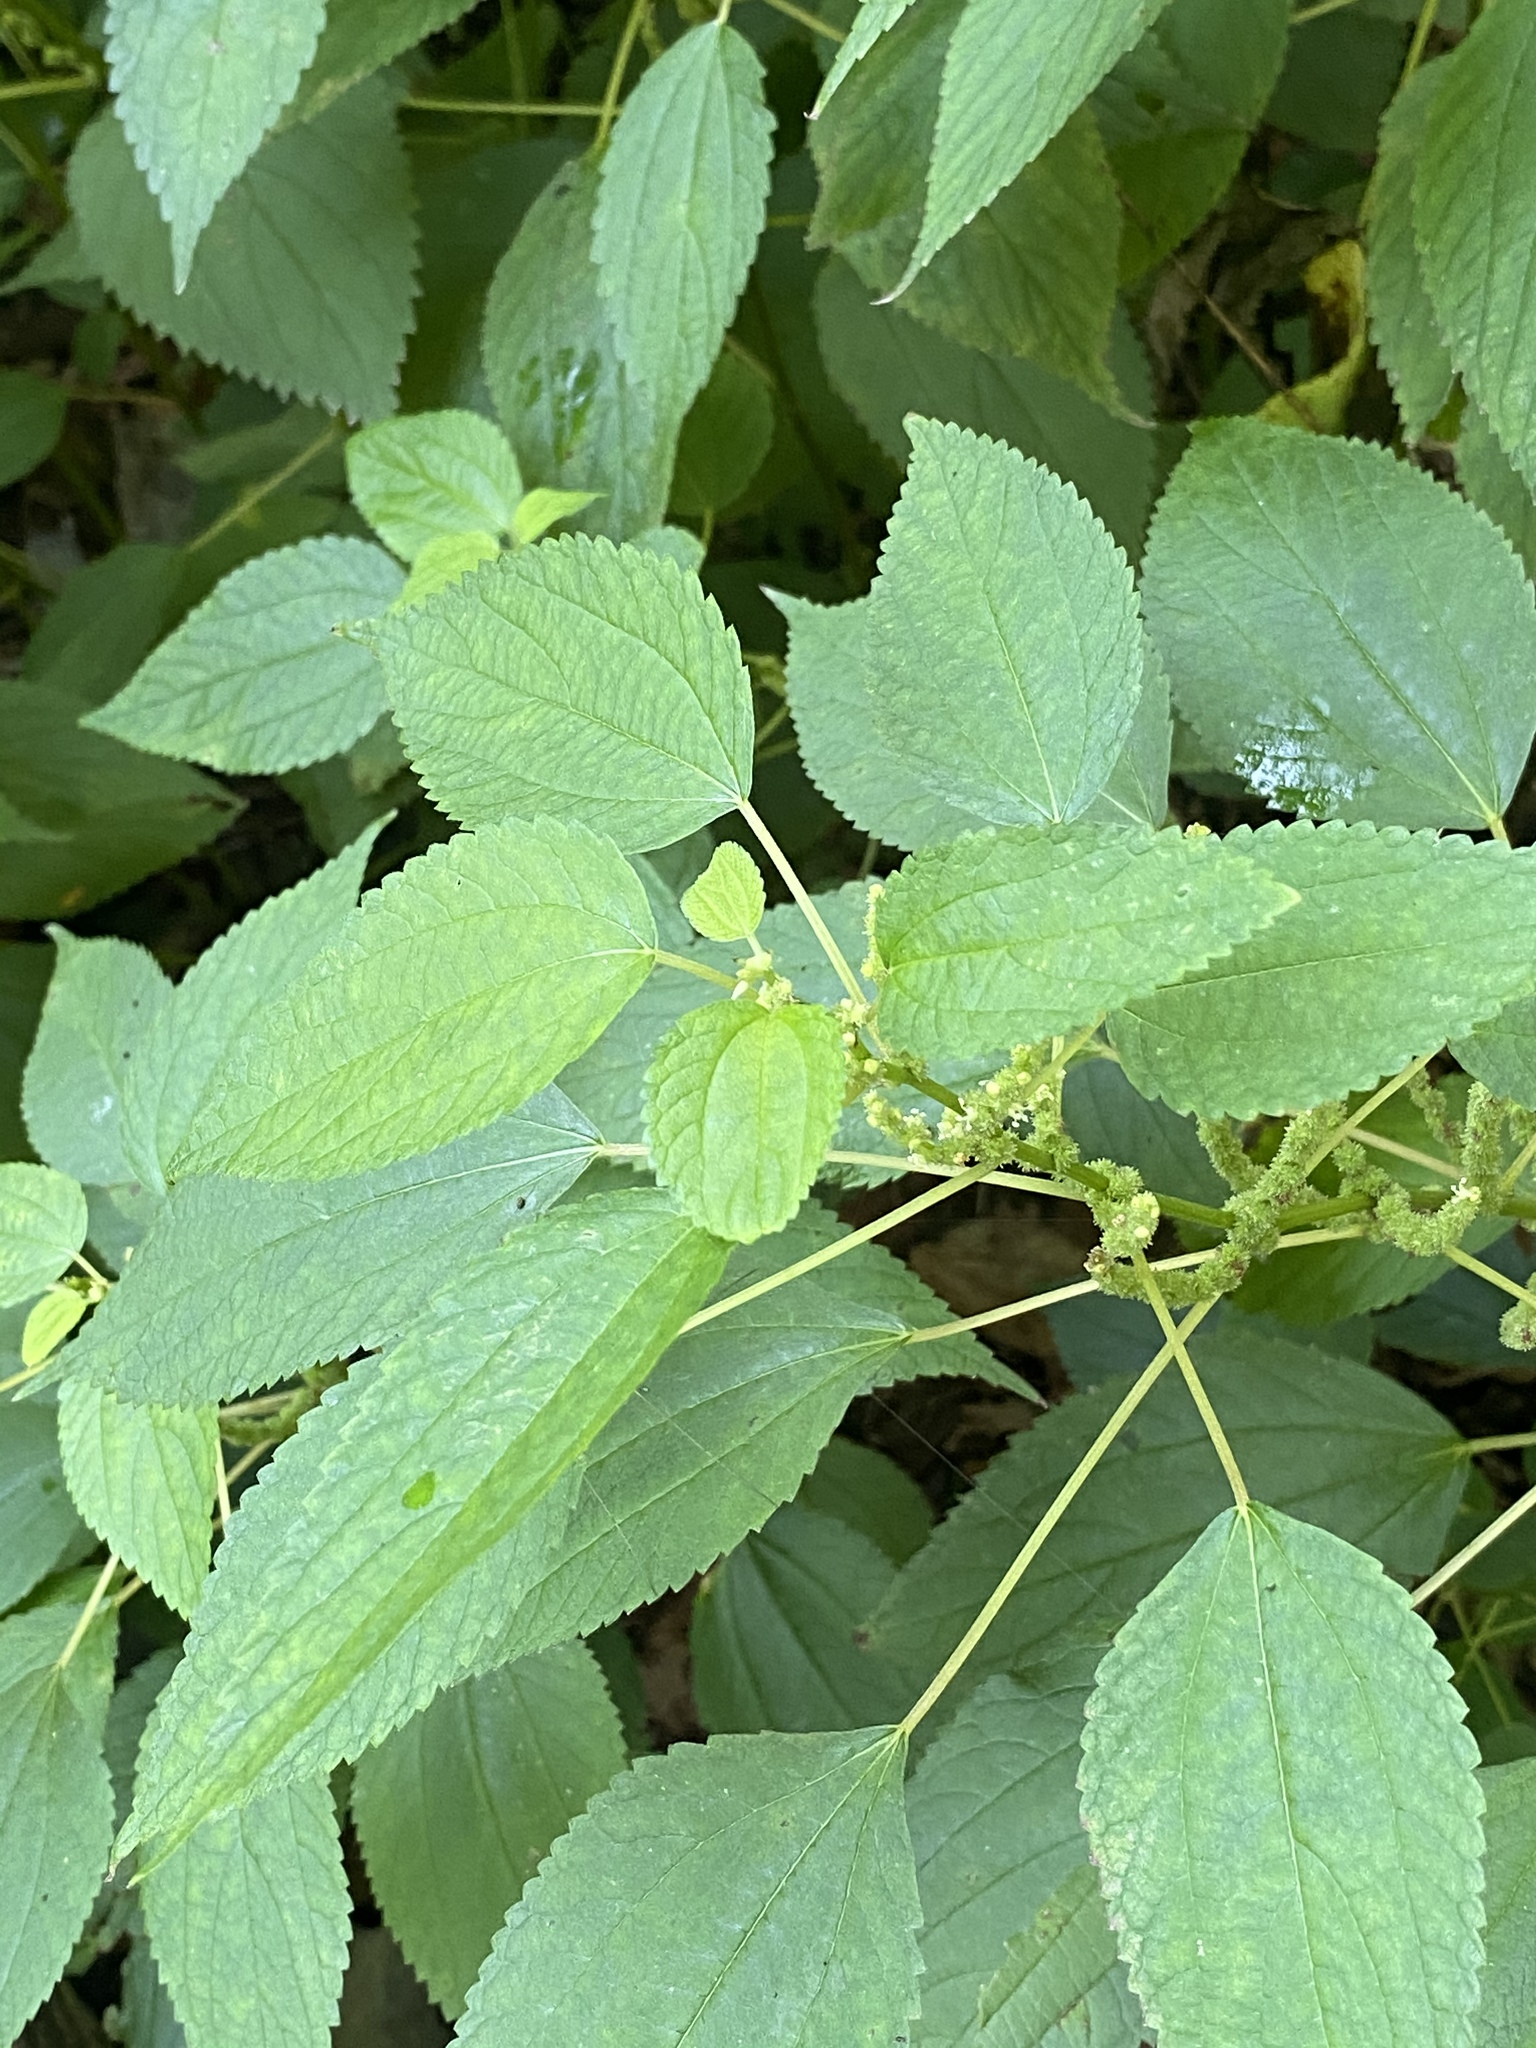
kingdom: Plantae
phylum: Tracheophyta
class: Magnoliopsida
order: Rosales
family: Urticaceae
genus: Boehmeria
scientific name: Boehmeria cylindrica
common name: Bog-hemp
